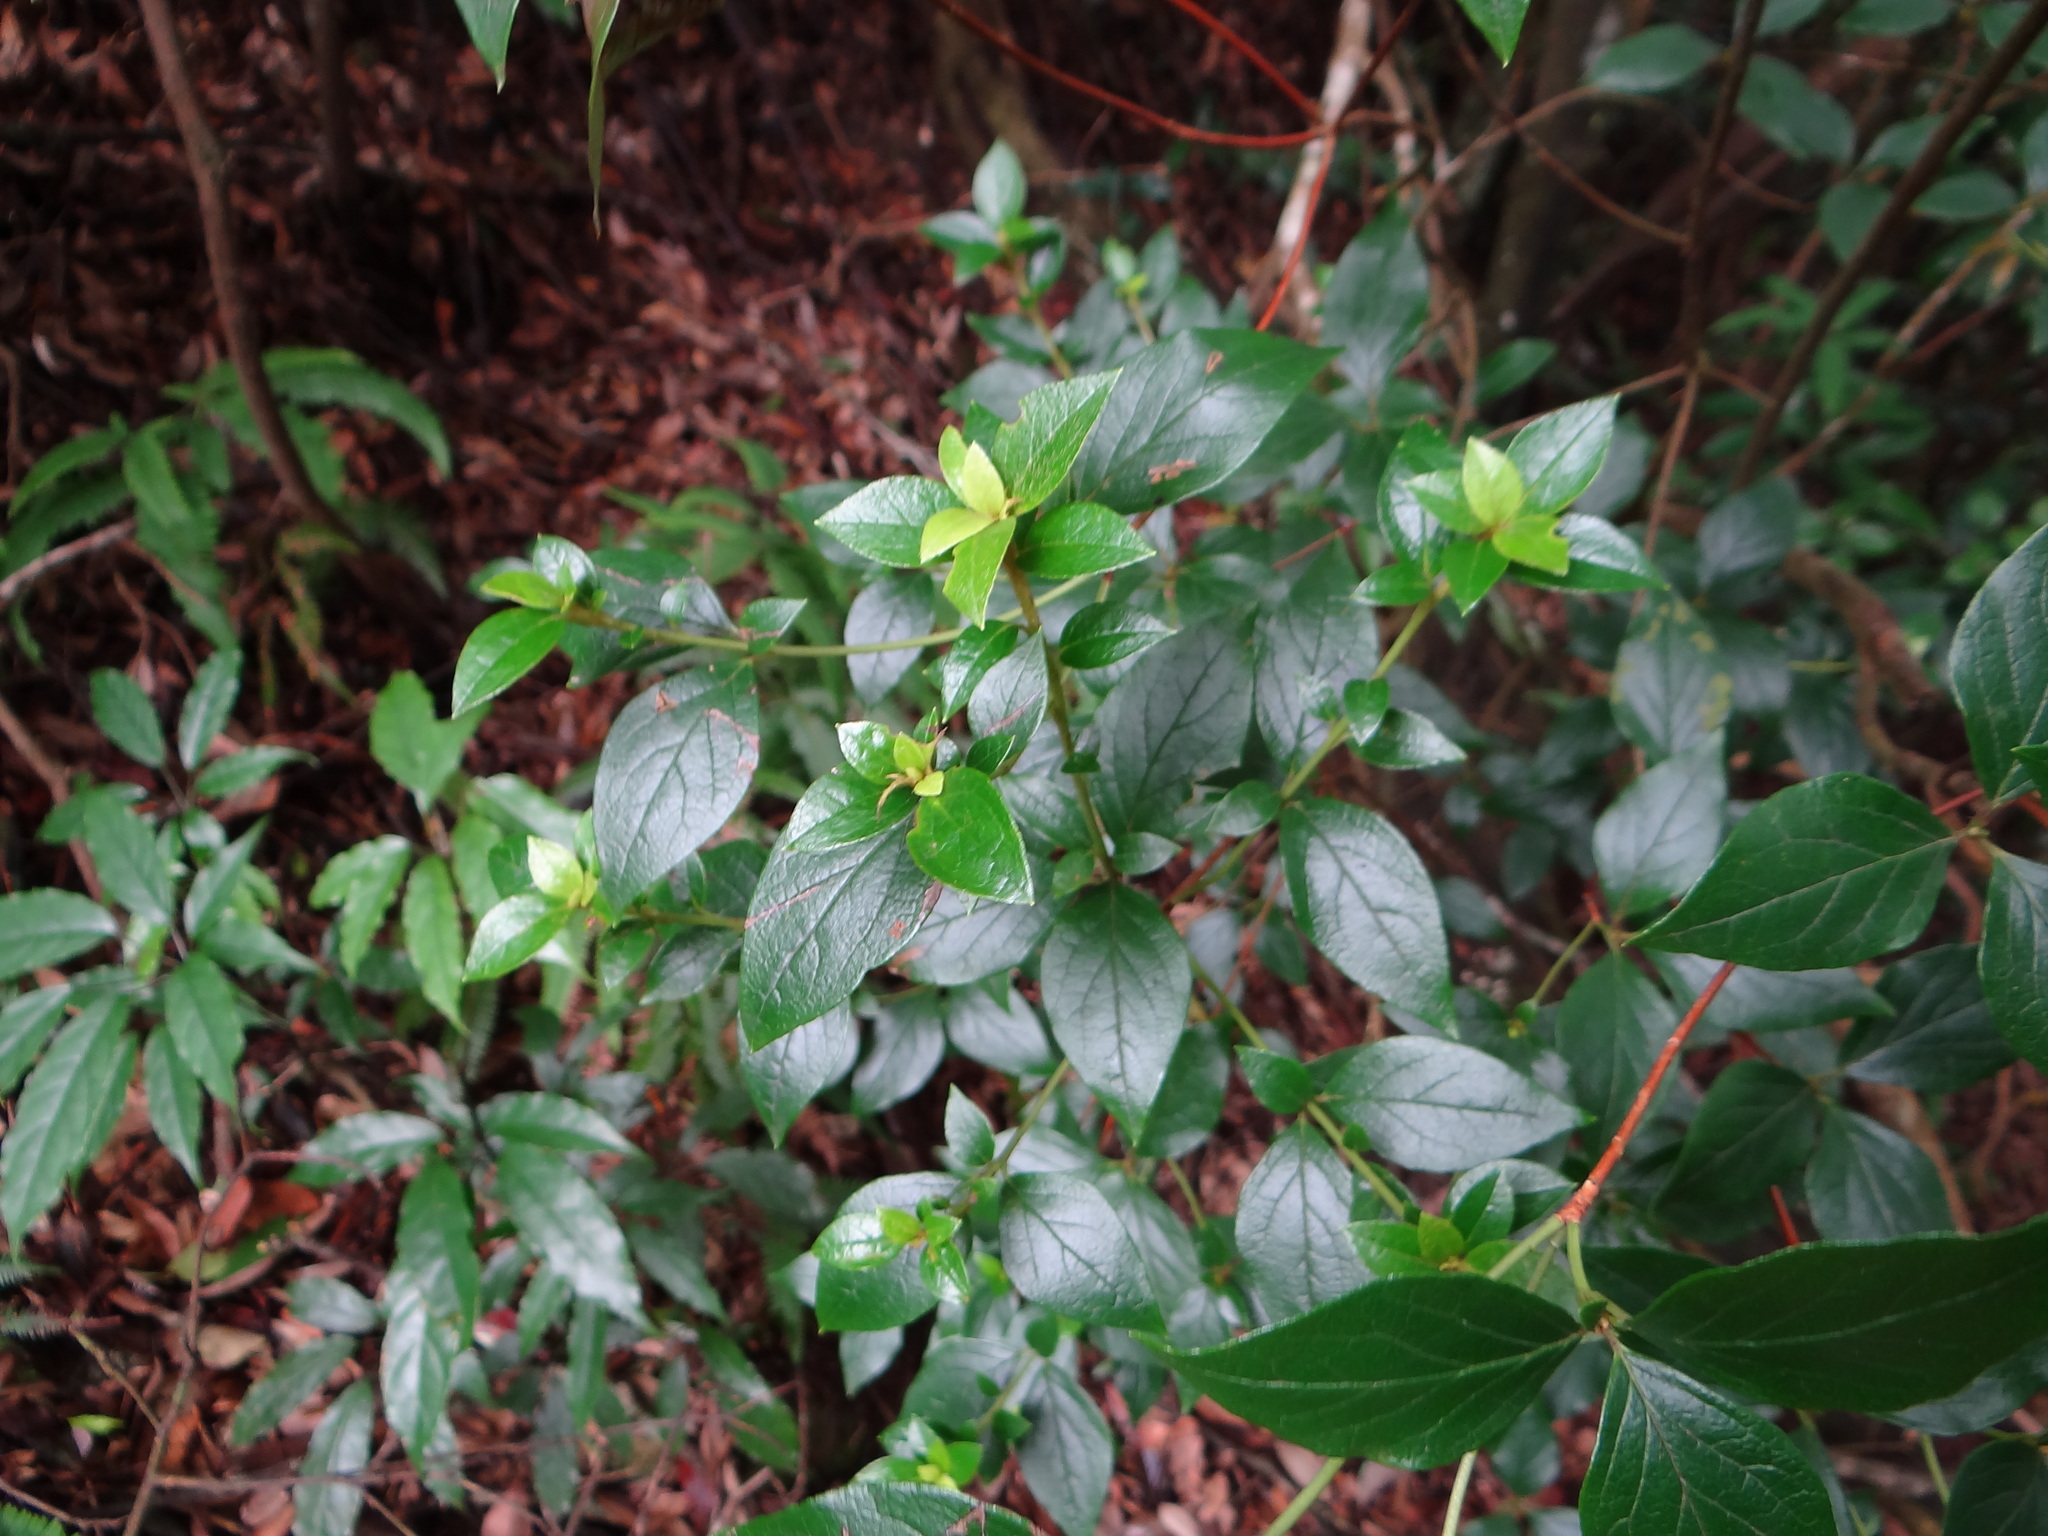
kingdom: Plantae
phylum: Tracheophyta
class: Magnoliopsida
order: Ericales
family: Ericaceae
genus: Rhododendron
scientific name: Rhododendron mariesii
